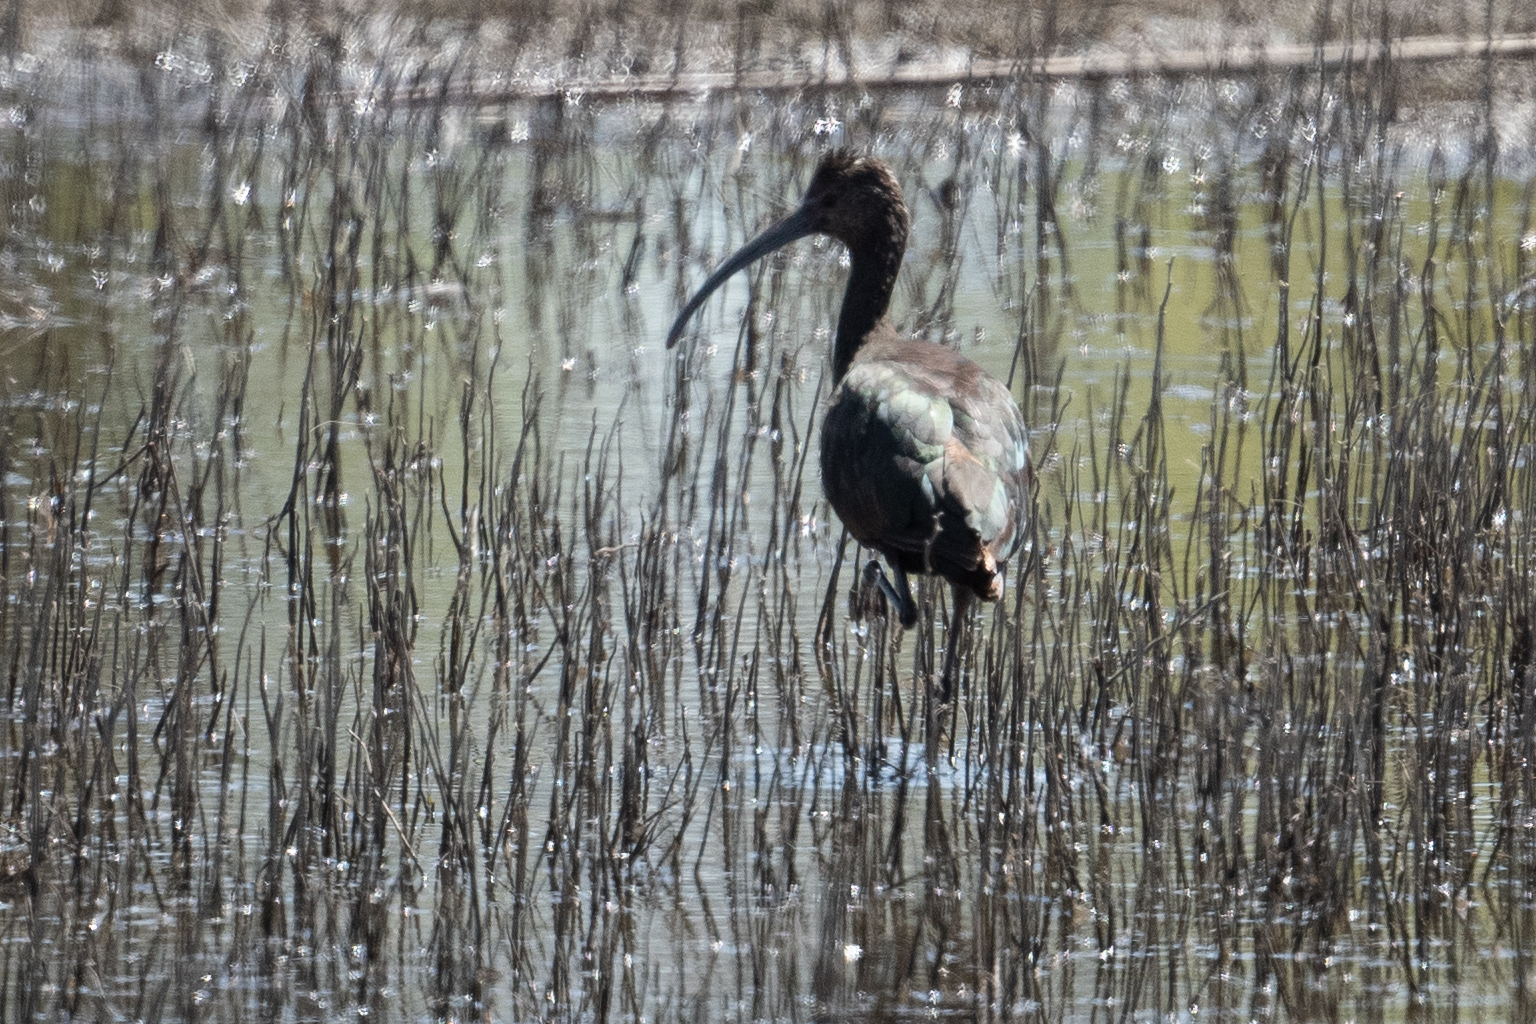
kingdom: Animalia
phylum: Chordata
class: Aves
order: Pelecaniformes
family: Threskiornithidae
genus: Plegadis
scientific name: Plegadis chihi
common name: White-faced ibis
